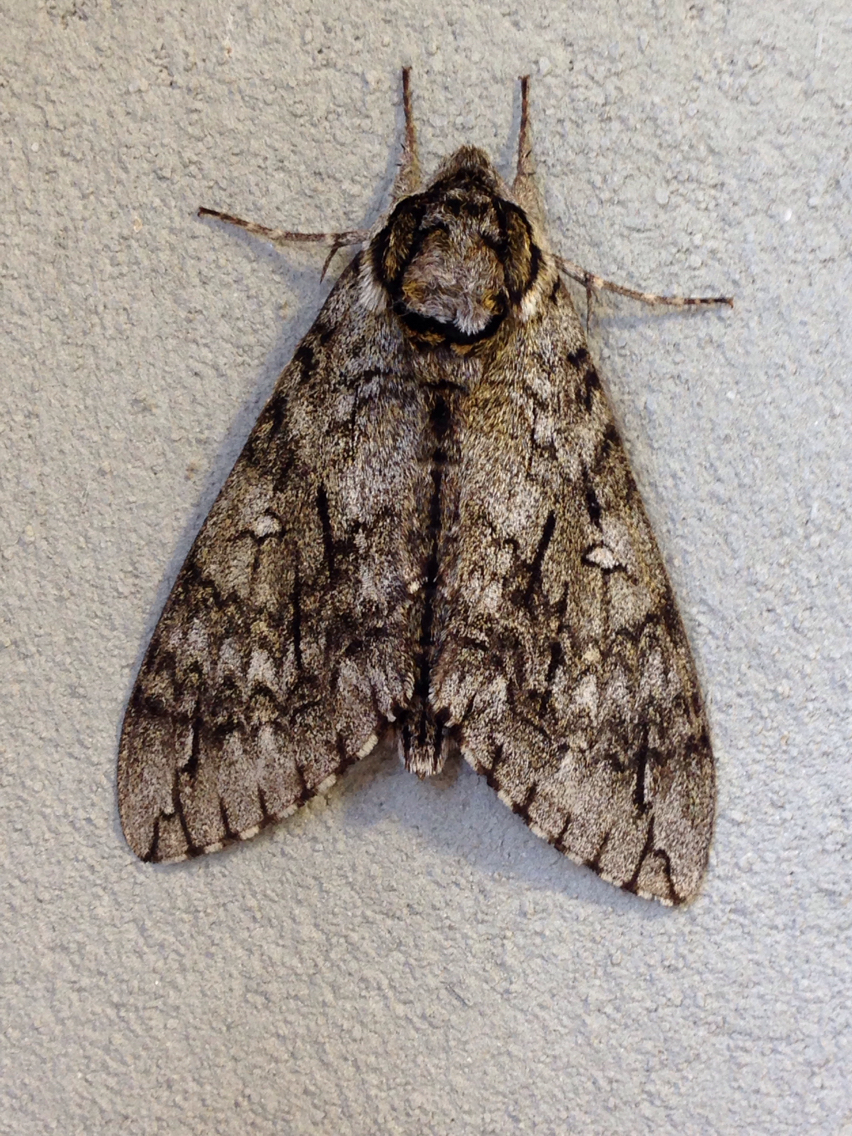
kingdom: Animalia
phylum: Arthropoda
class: Insecta
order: Lepidoptera
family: Sphingidae
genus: Ceratomia
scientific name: Ceratomia undulosa
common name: Waved sphinx
